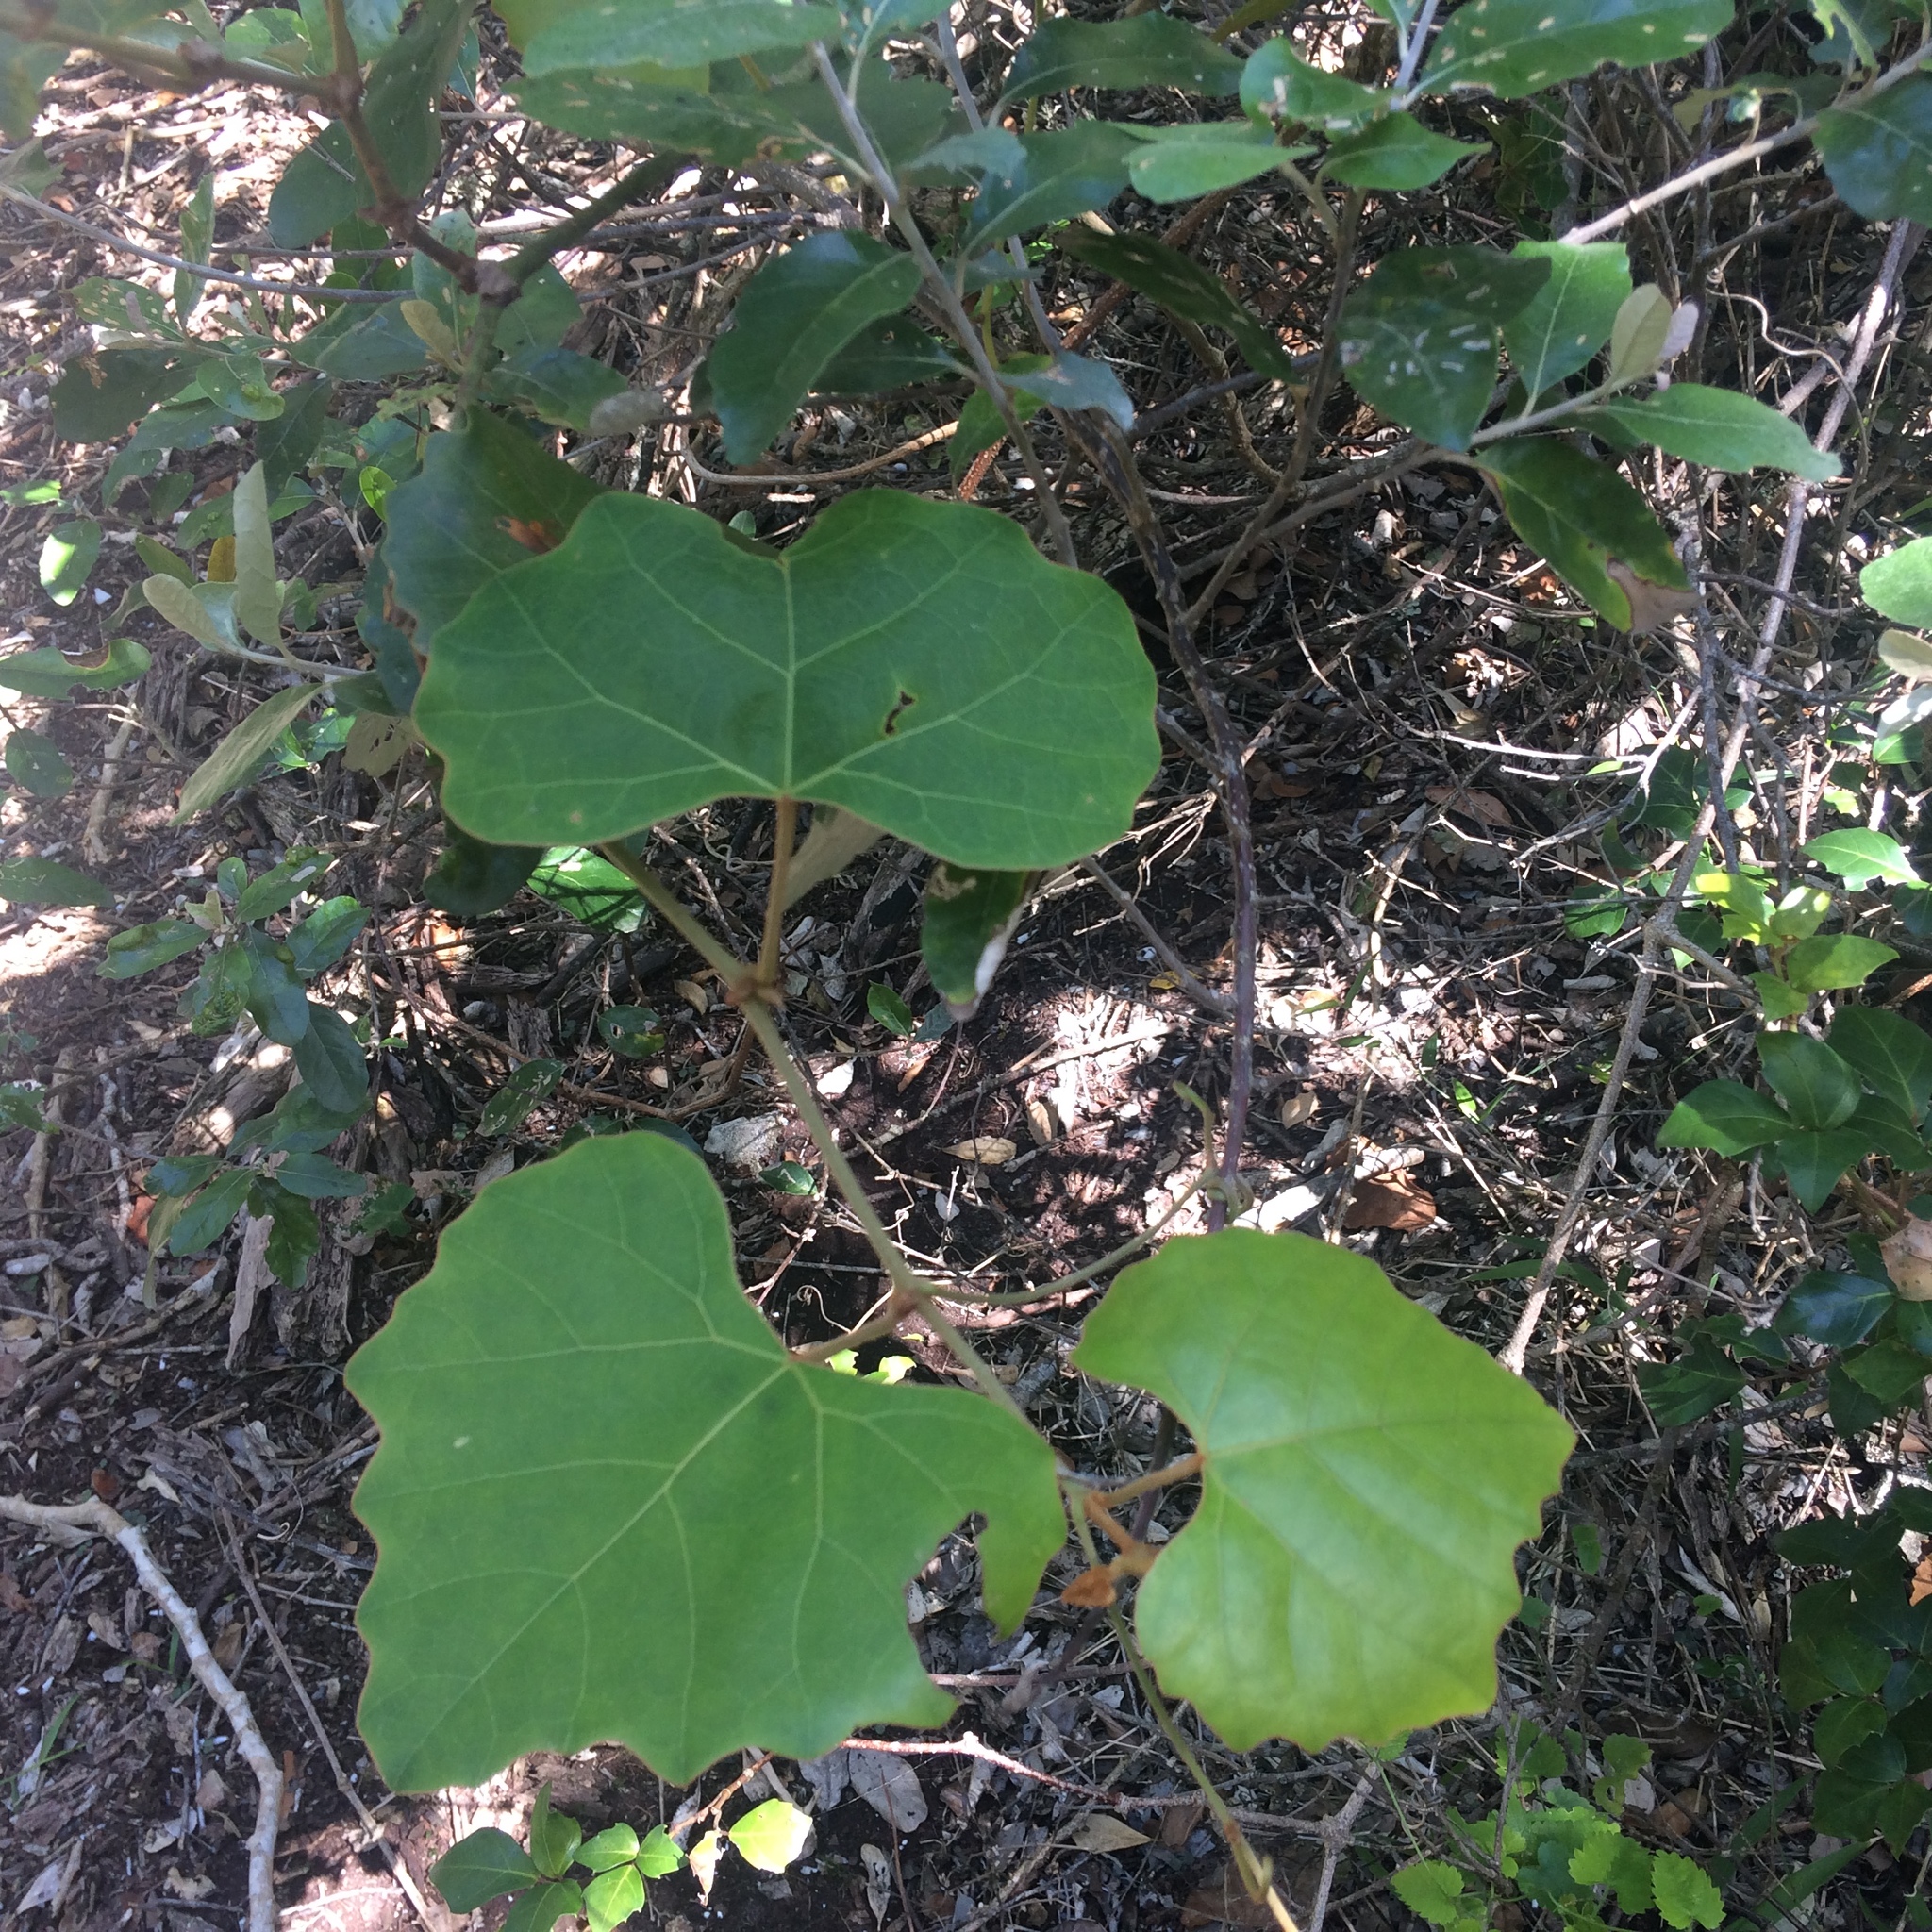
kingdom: Plantae
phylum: Tracheophyta
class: Magnoliopsida
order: Vitales
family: Vitaceae
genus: Rhoicissus
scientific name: Rhoicissus tomentosa
